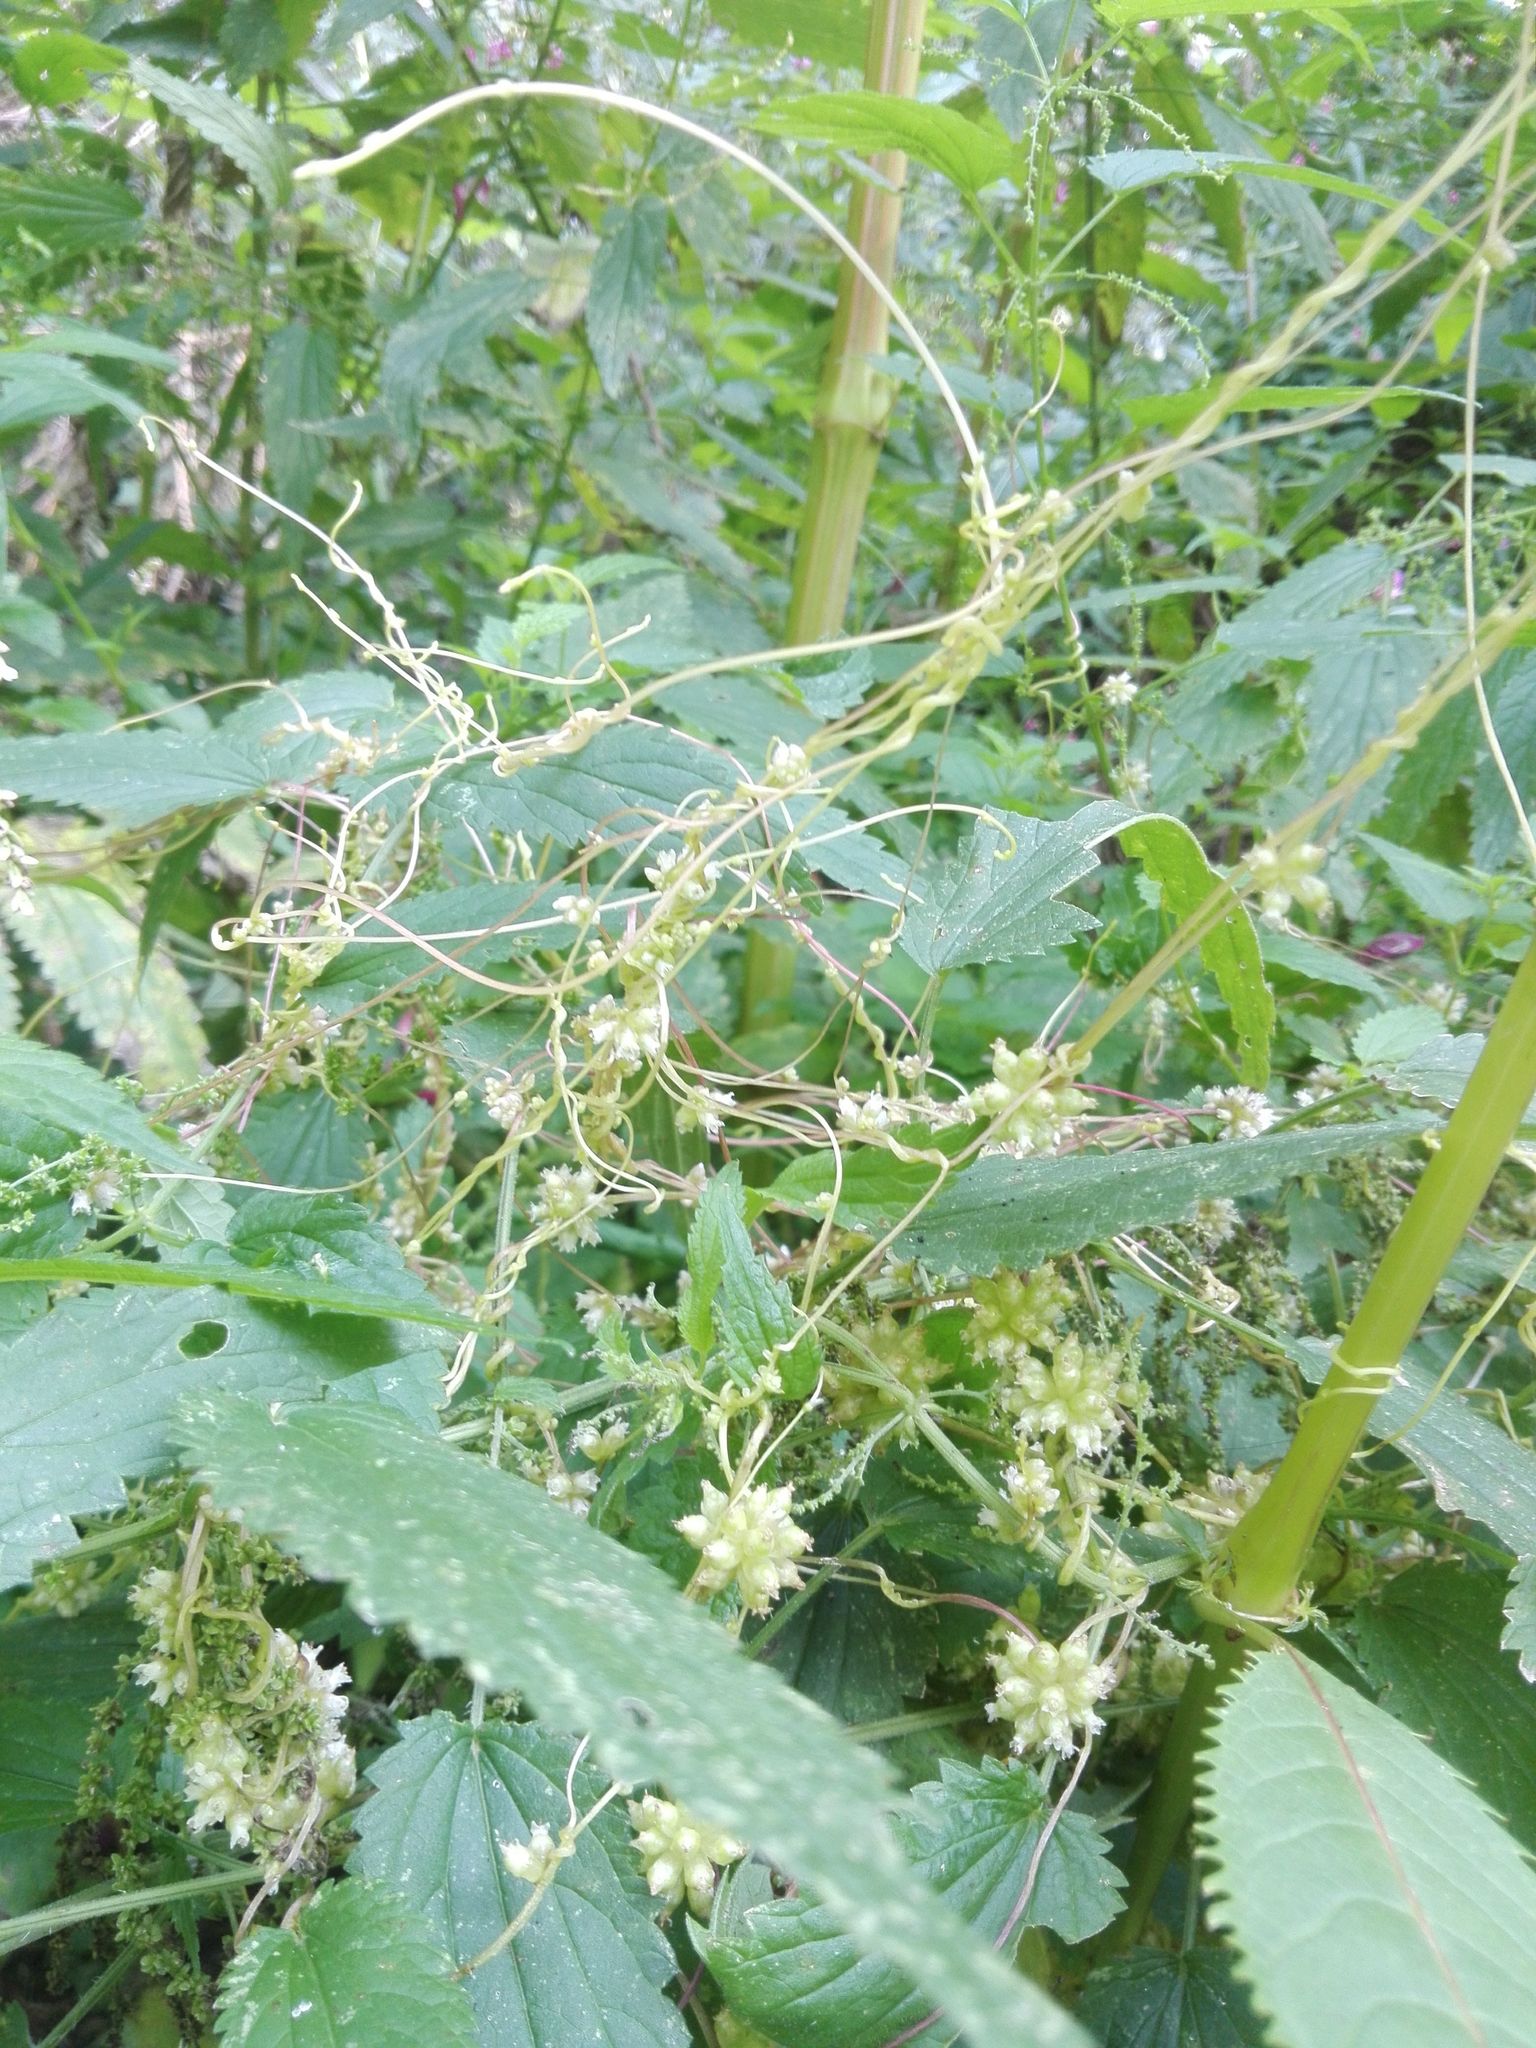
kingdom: Plantae
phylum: Tracheophyta
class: Magnoliopsida
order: Rosales
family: Urticaceae
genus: Urtica
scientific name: Urtica dioica
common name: Common nettle
